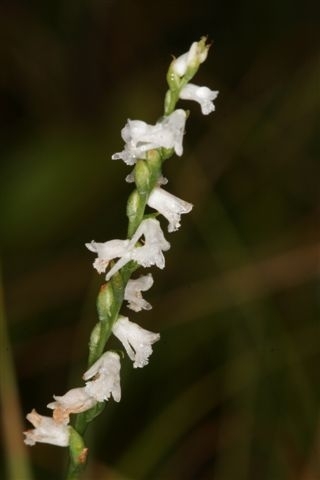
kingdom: Plantae
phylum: Tracheophyta
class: Liliopsida
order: Asparagales
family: Orchidaceae
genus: Spiranthes
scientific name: Spiranthes tuberosa
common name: Little ladies'-tresses
